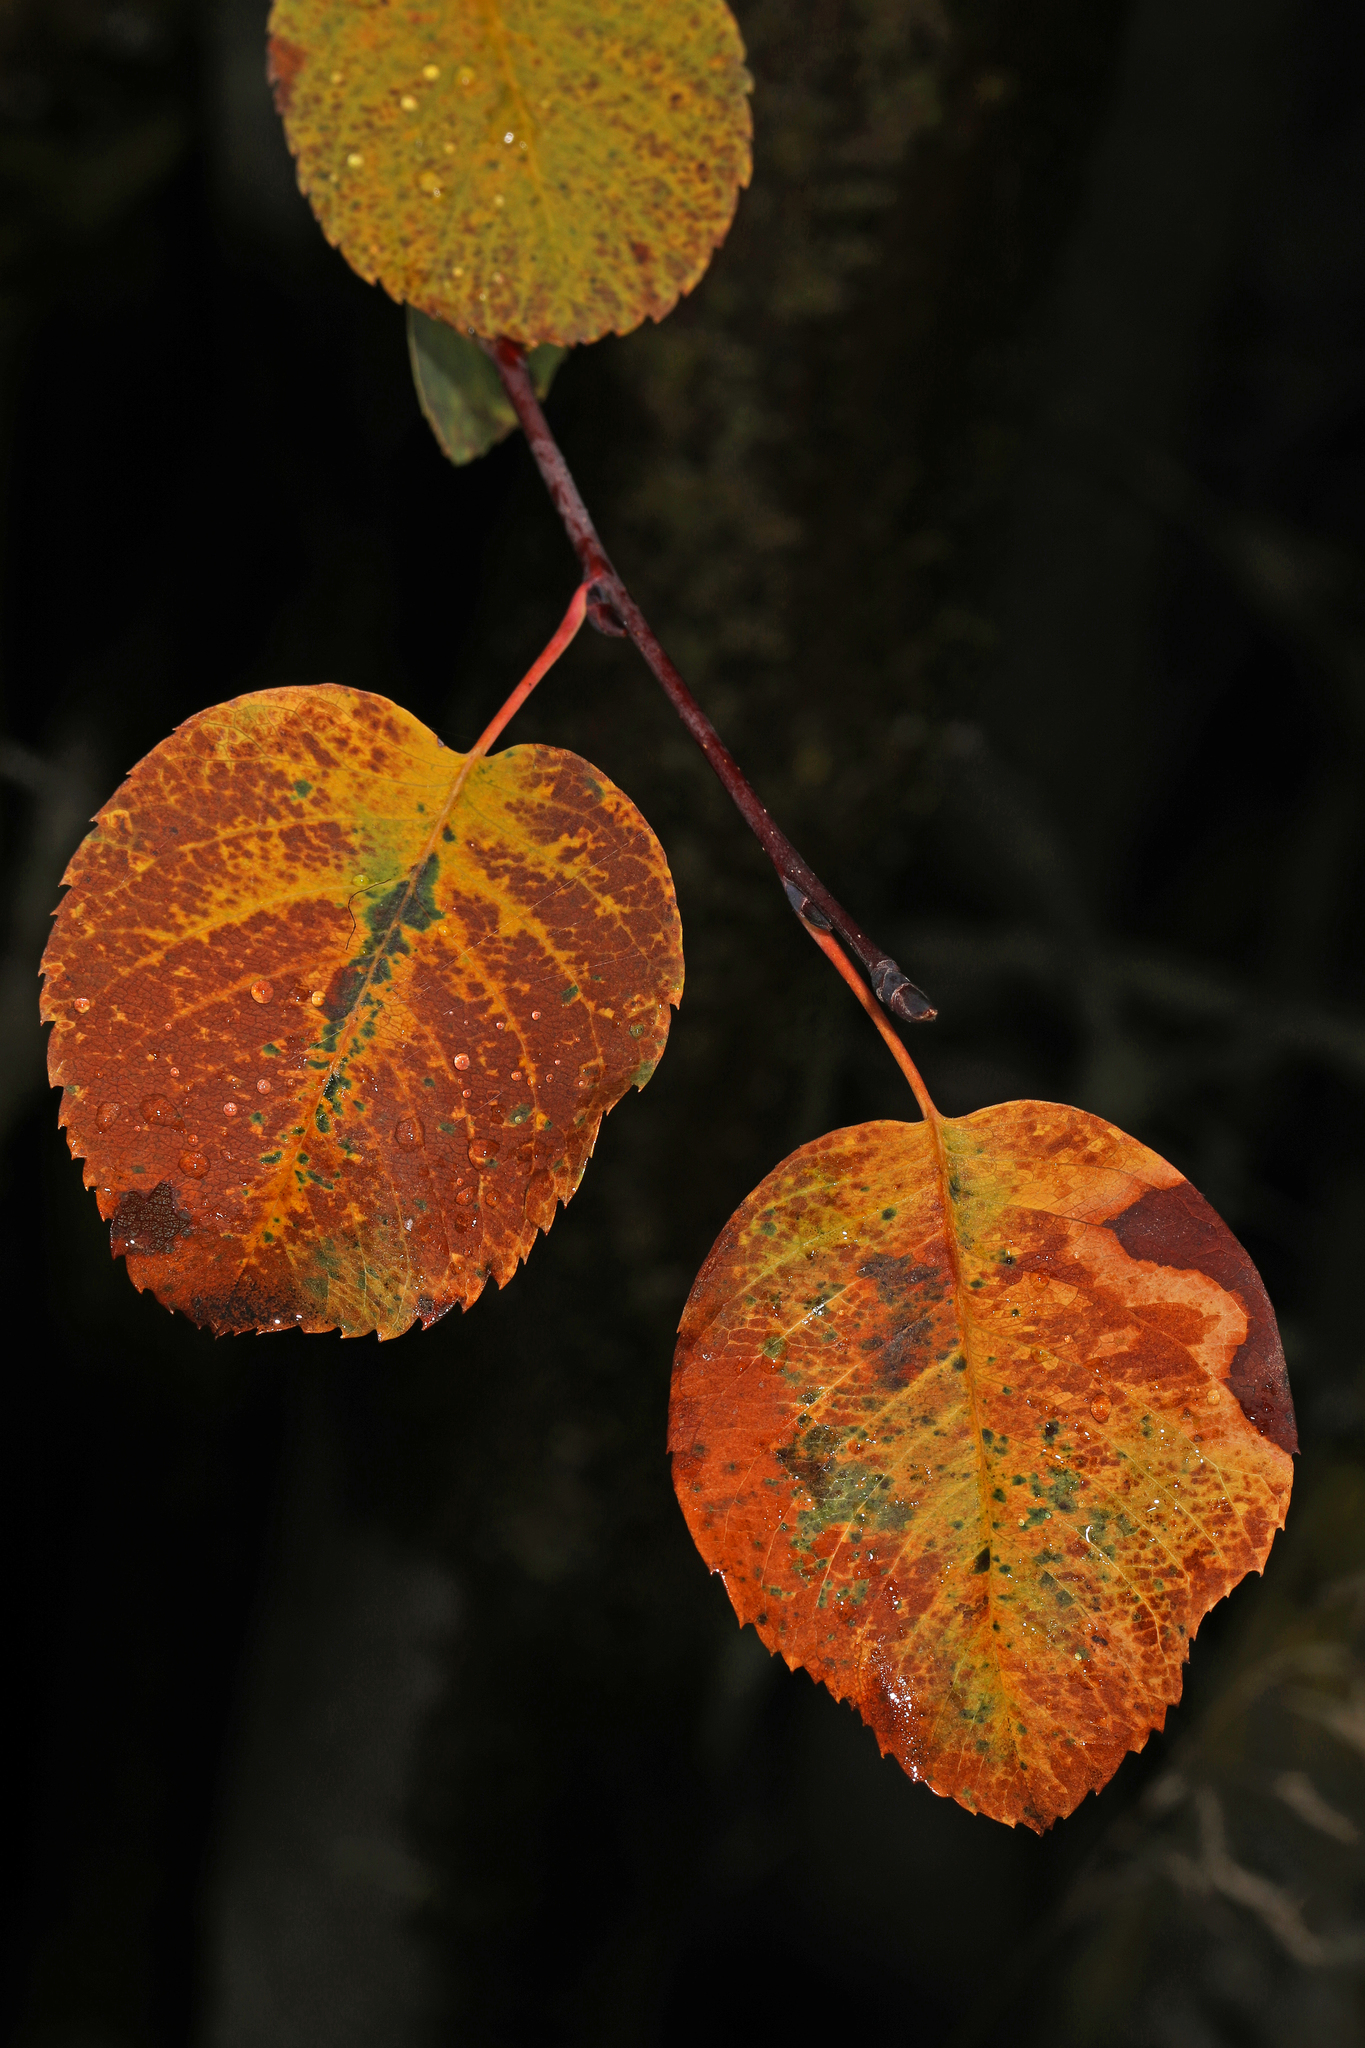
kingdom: Plantae
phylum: Tracheophyta
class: Magnoliopsida
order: Rosales
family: Rosaceae
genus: Amelanchier
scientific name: Amelanchier alnifolia
